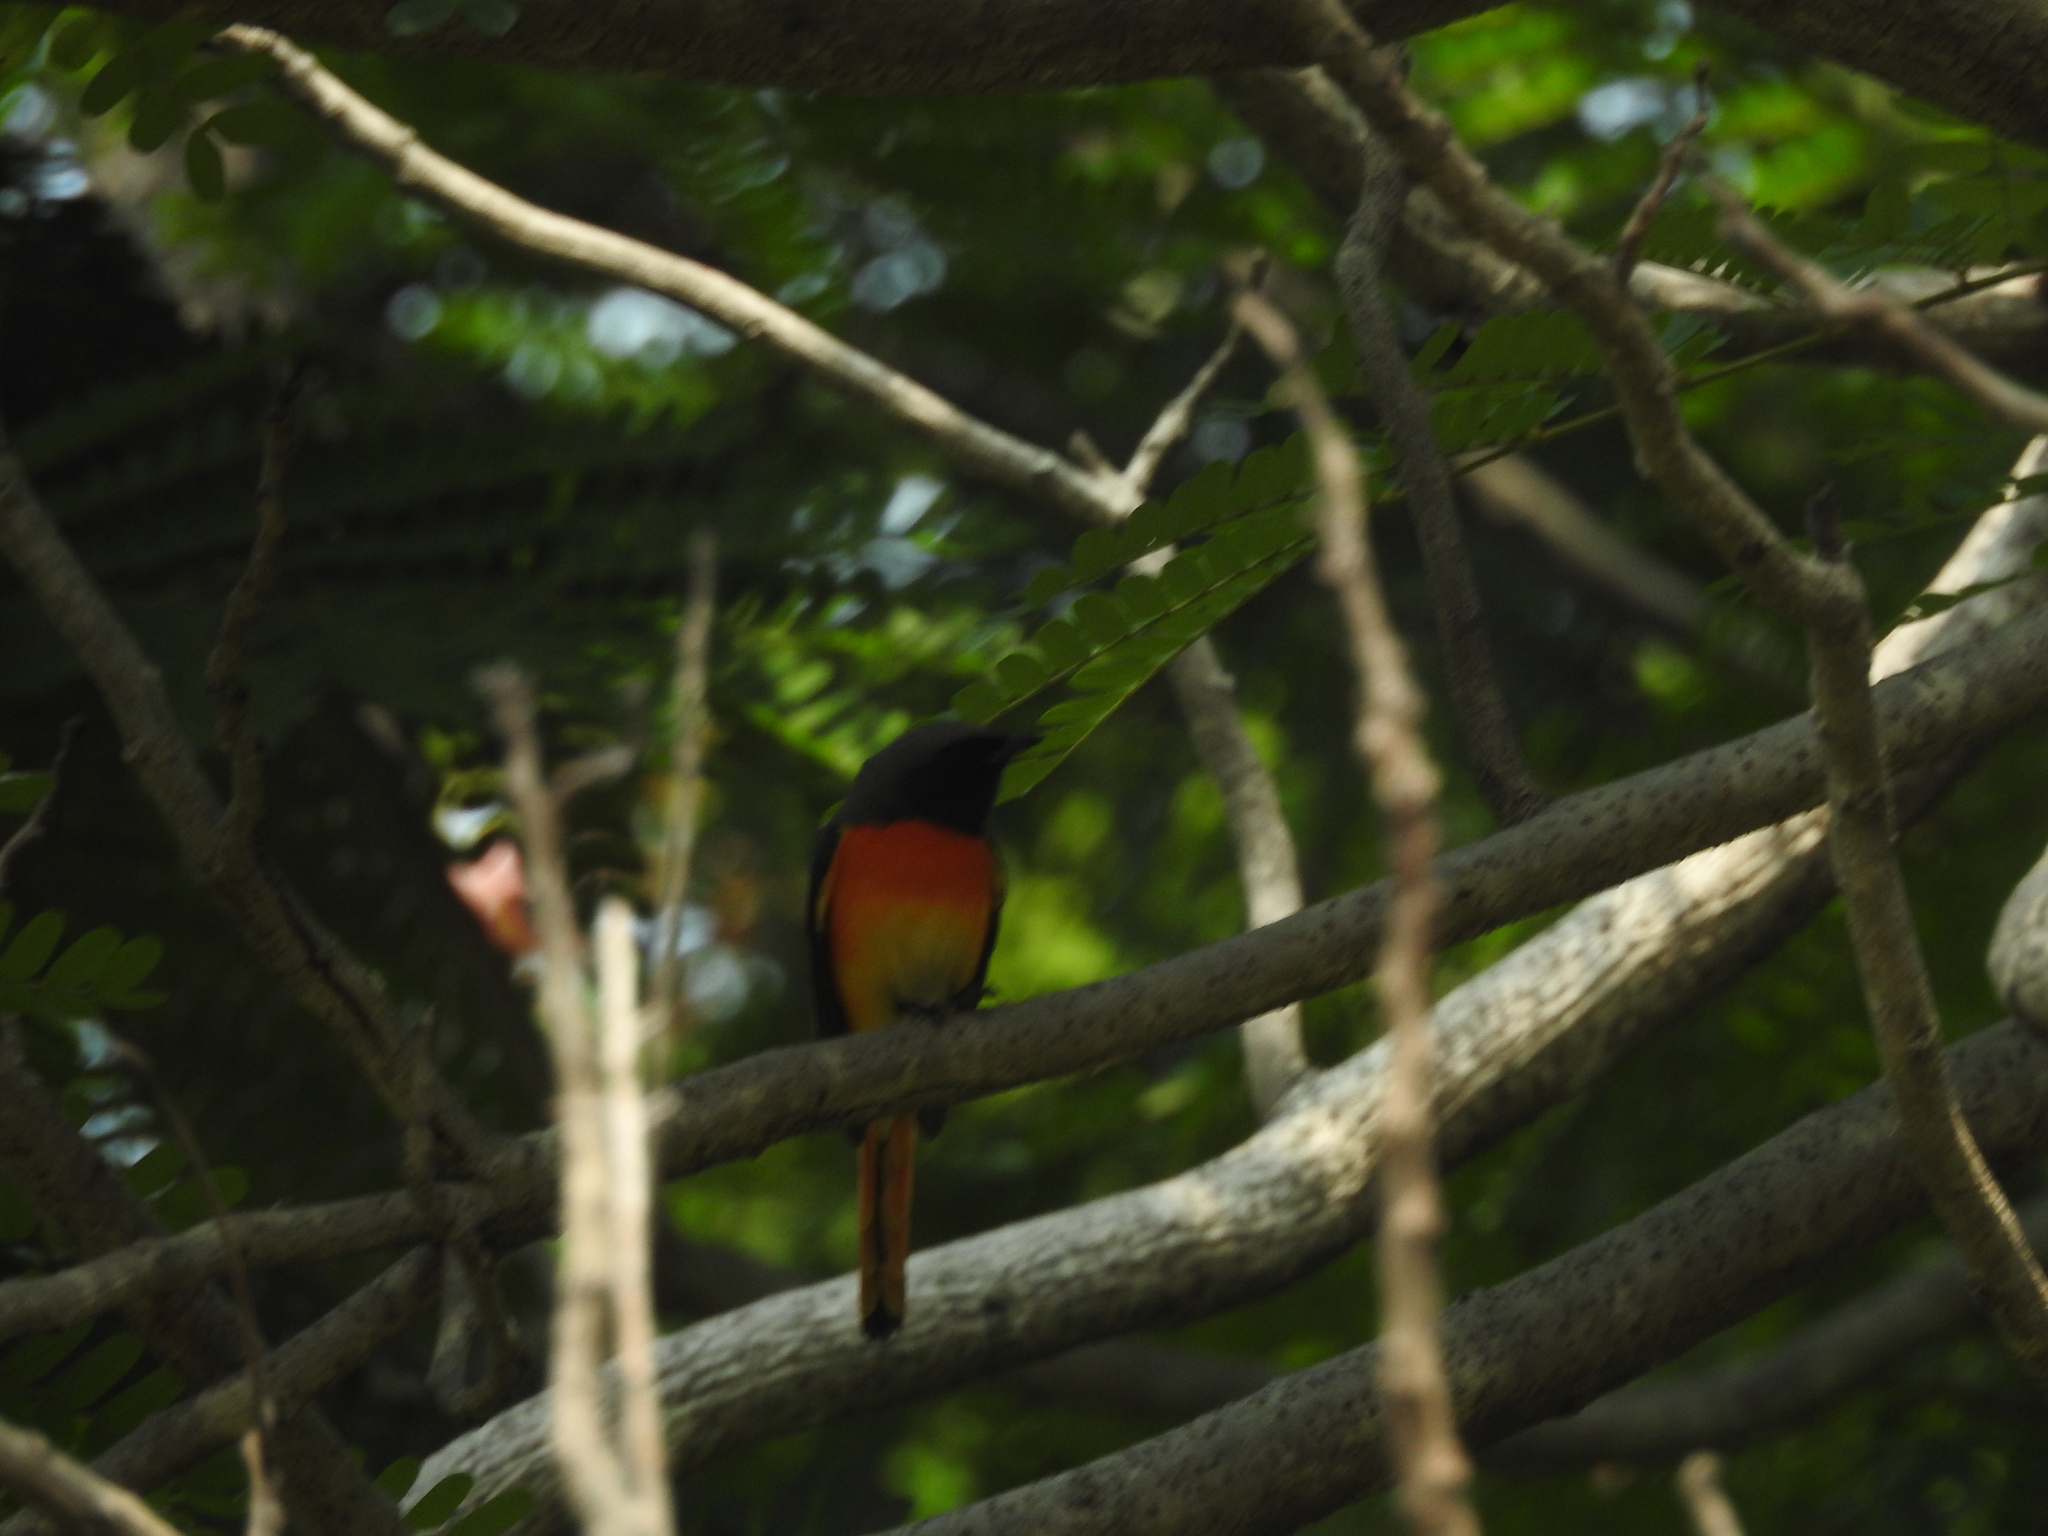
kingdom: Animalia
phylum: Chordata
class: Aves
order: Passeriformes
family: Campephagidae
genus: Pericrocotus
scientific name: Pericrocotus cinnamomeus
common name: Small minivet
